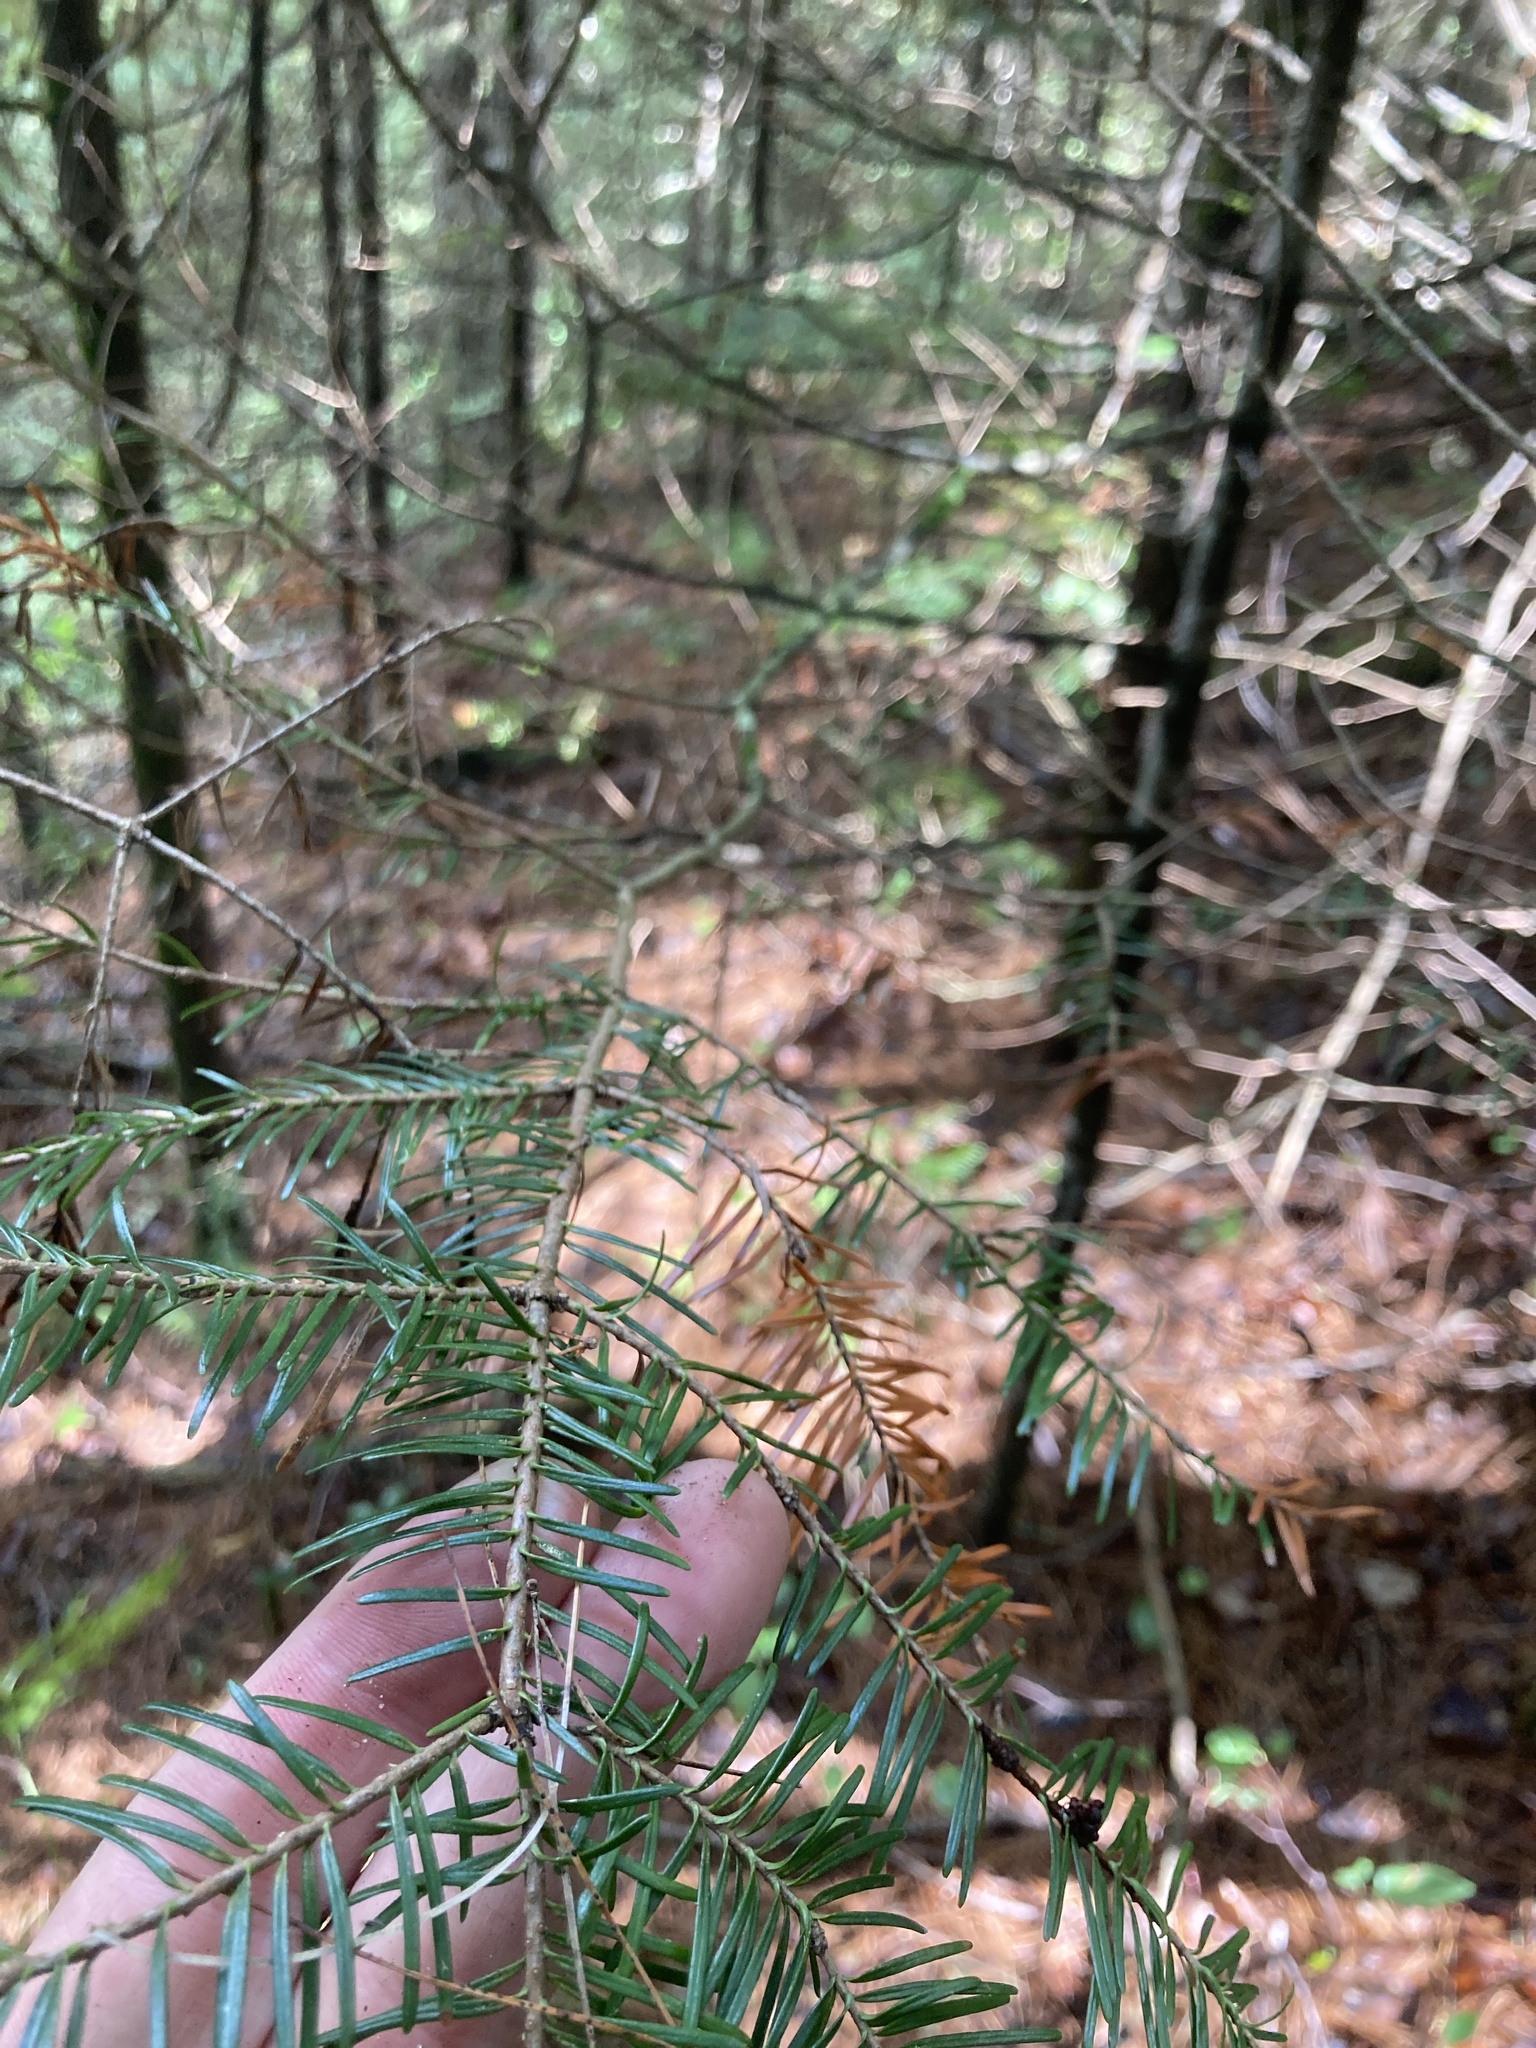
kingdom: Plantae
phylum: Tracheophyta
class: Pinopsida
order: Pinales
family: Pinaceae
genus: Abies
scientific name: Abies balsamea
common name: Balsam fir
